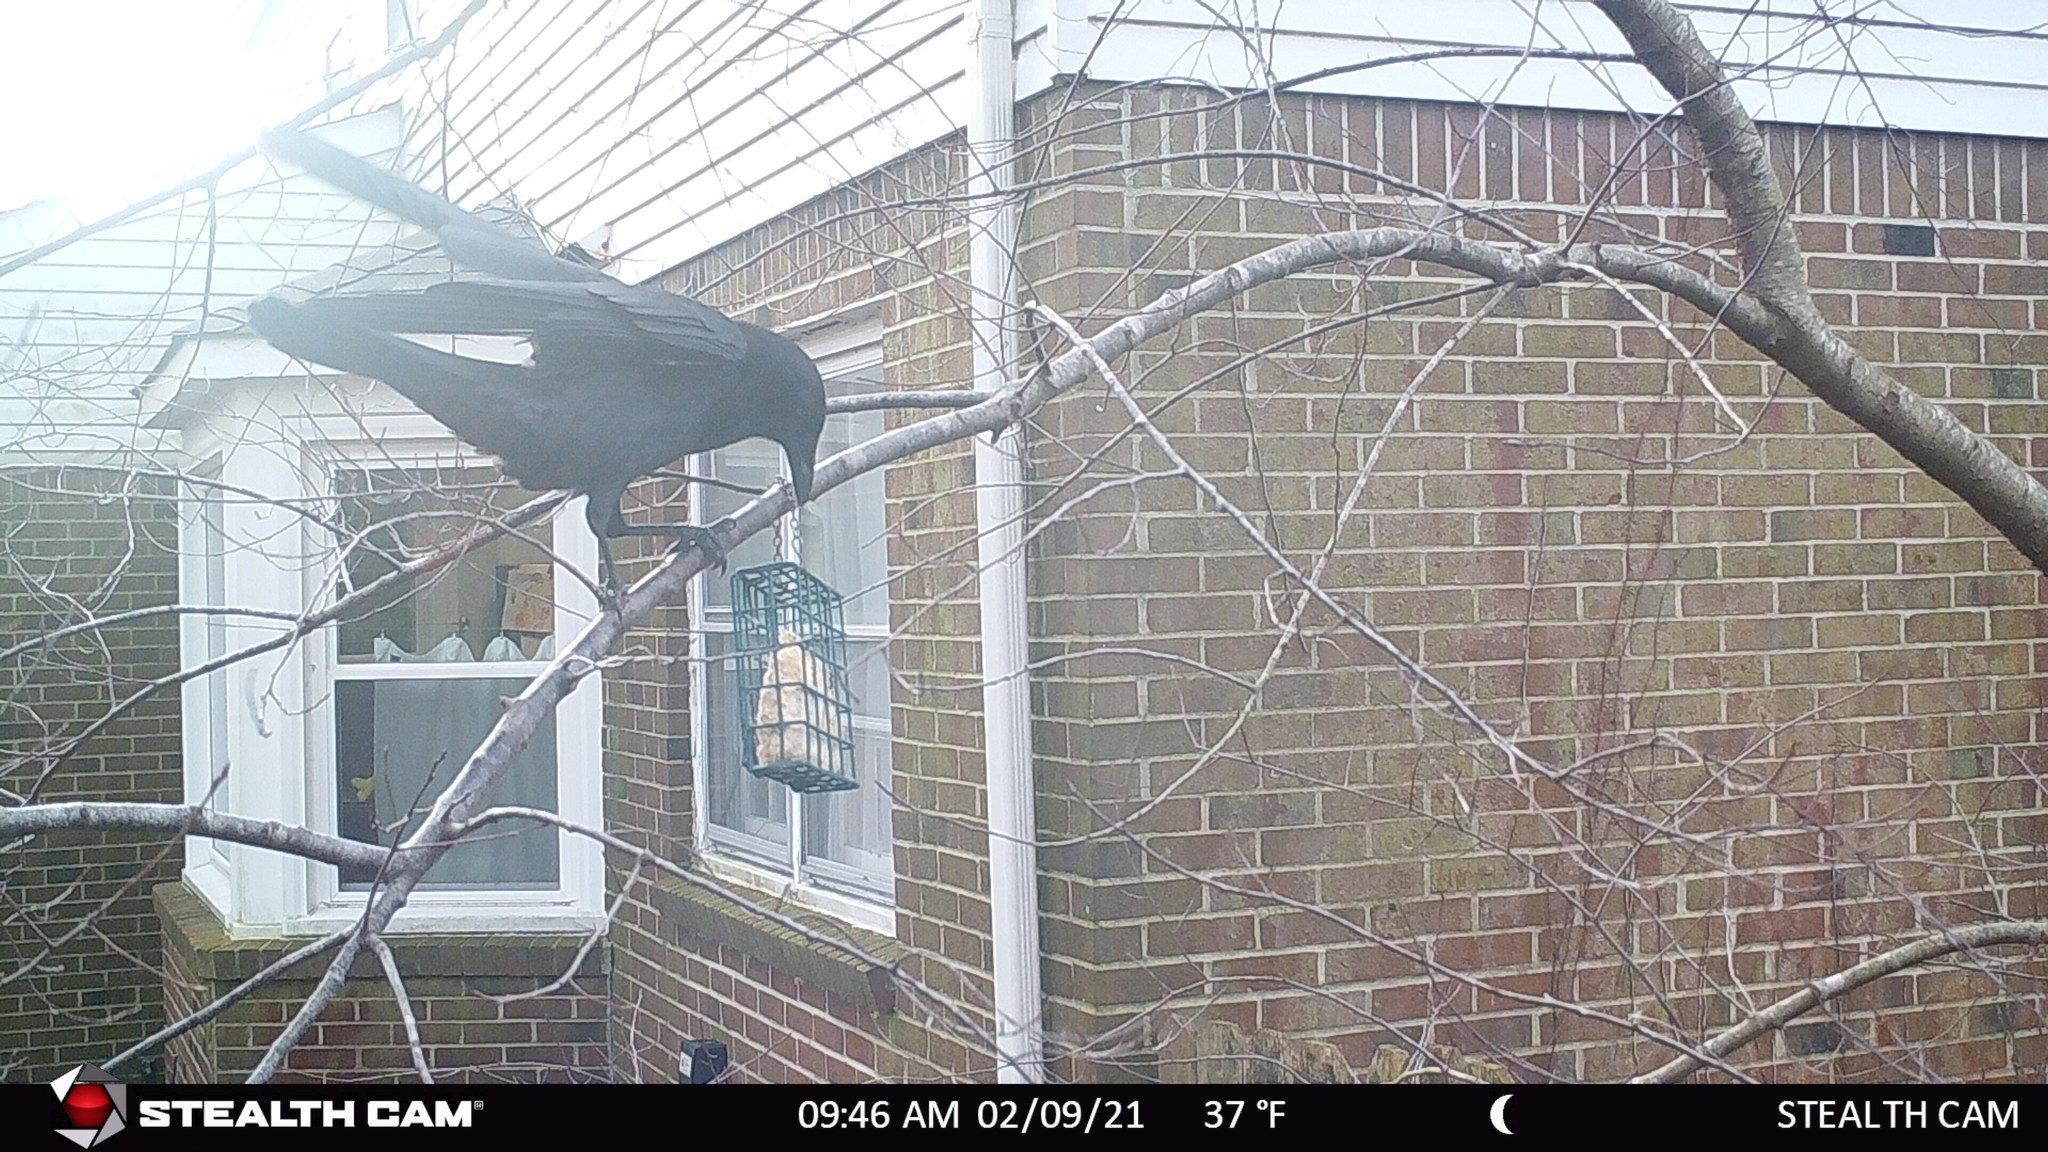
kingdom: Animalia
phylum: Chordata
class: Aves
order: Passeriformes
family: Corvidae
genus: Corvus
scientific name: Corvus brachyrhynchos
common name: American crow
